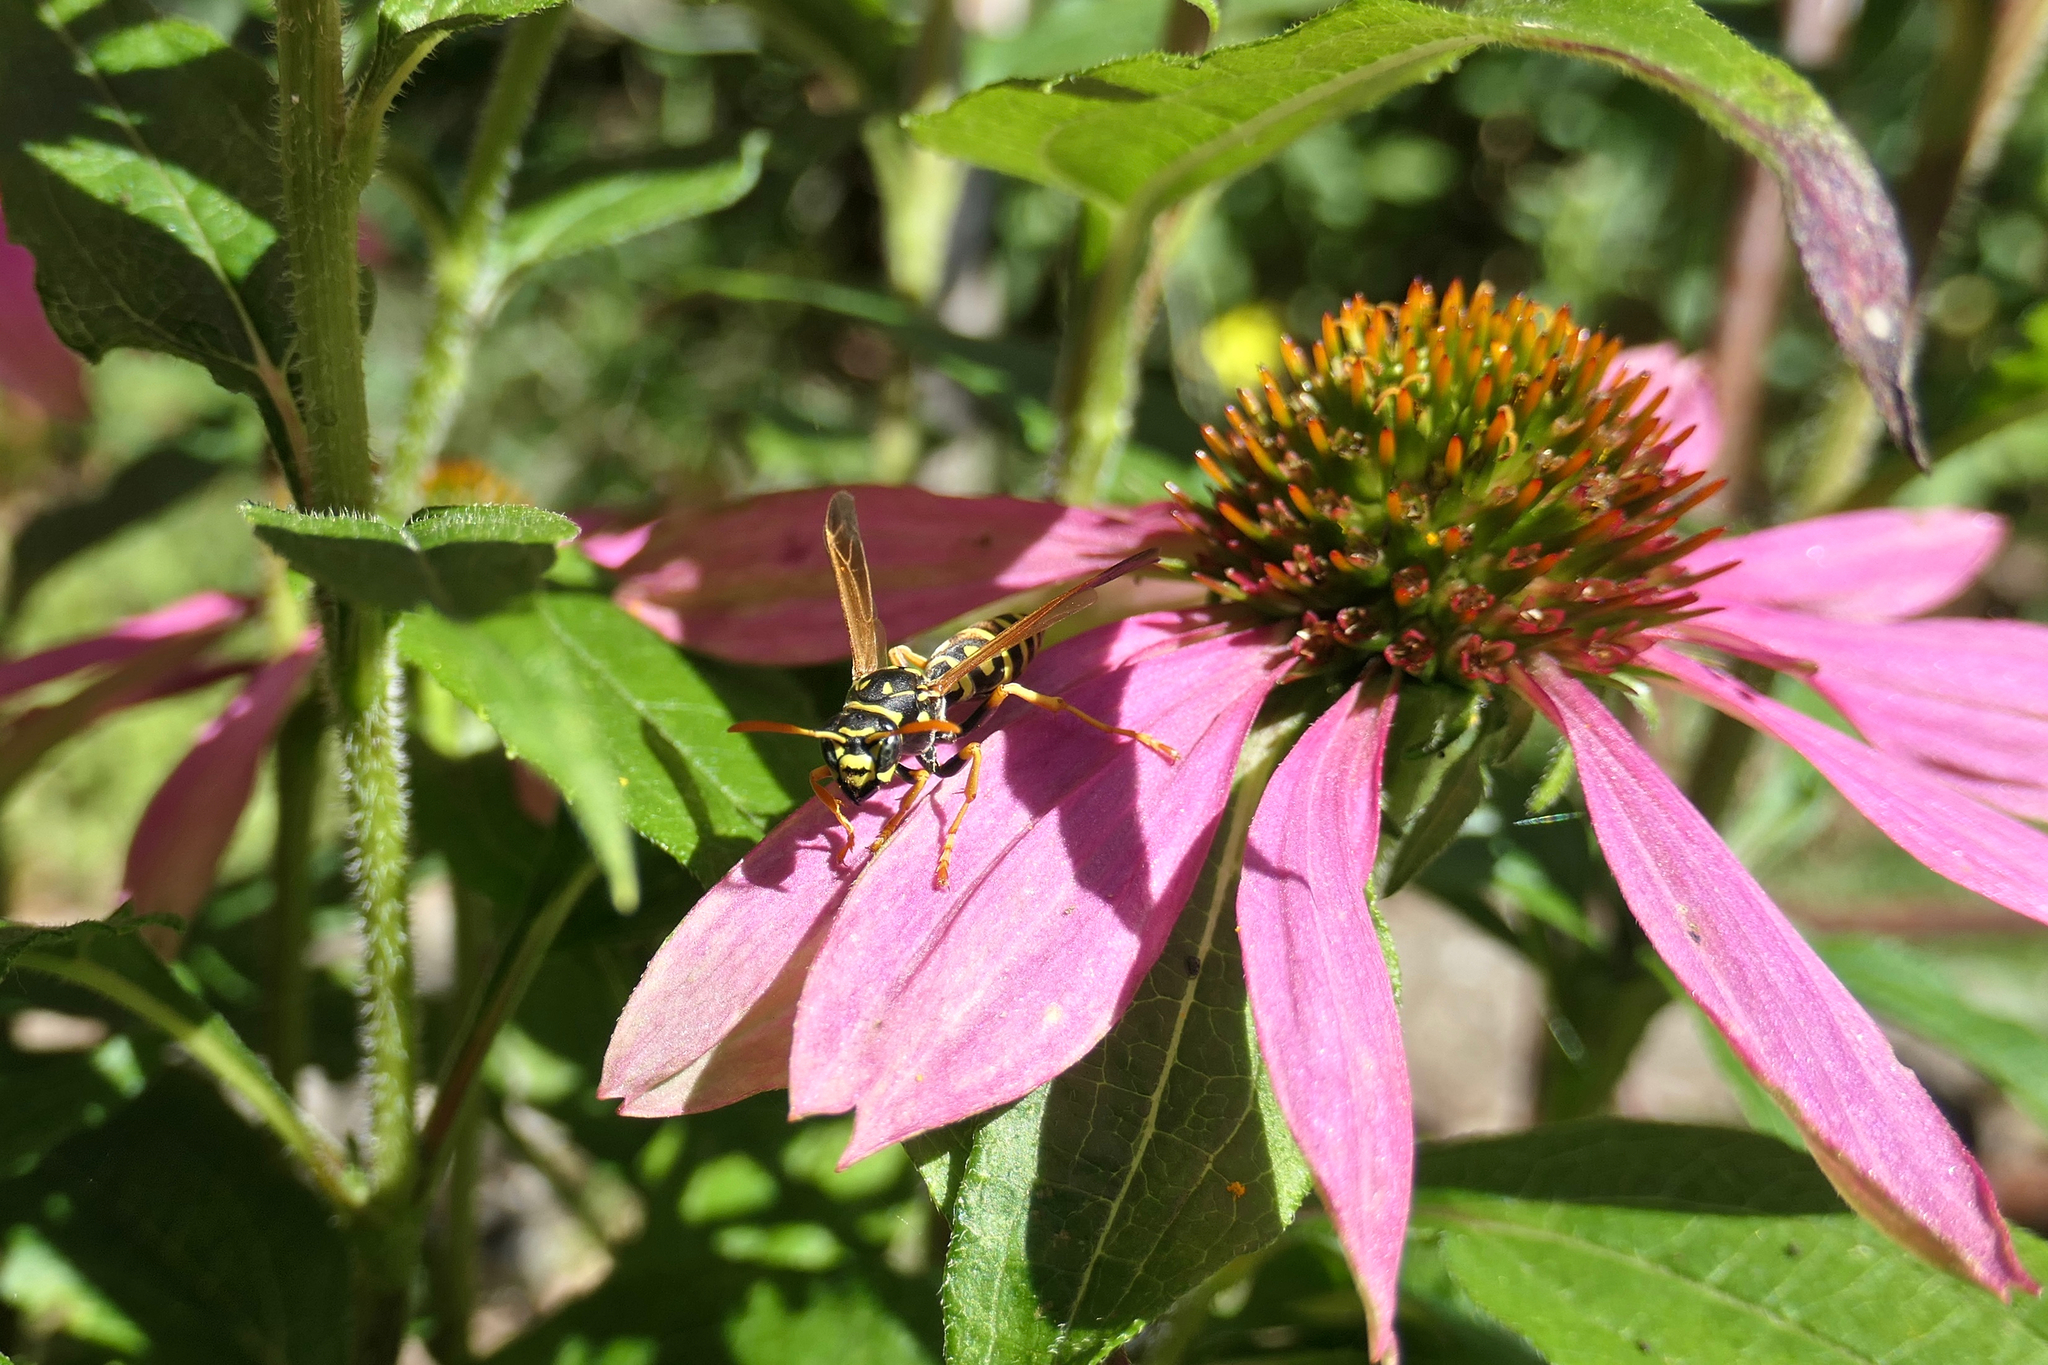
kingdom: Animalia
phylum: Arthropoda
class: Insecta
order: Hymenoptera
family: Eumenidae
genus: Polistes
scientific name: Polistes dominula
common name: Paper wasp
